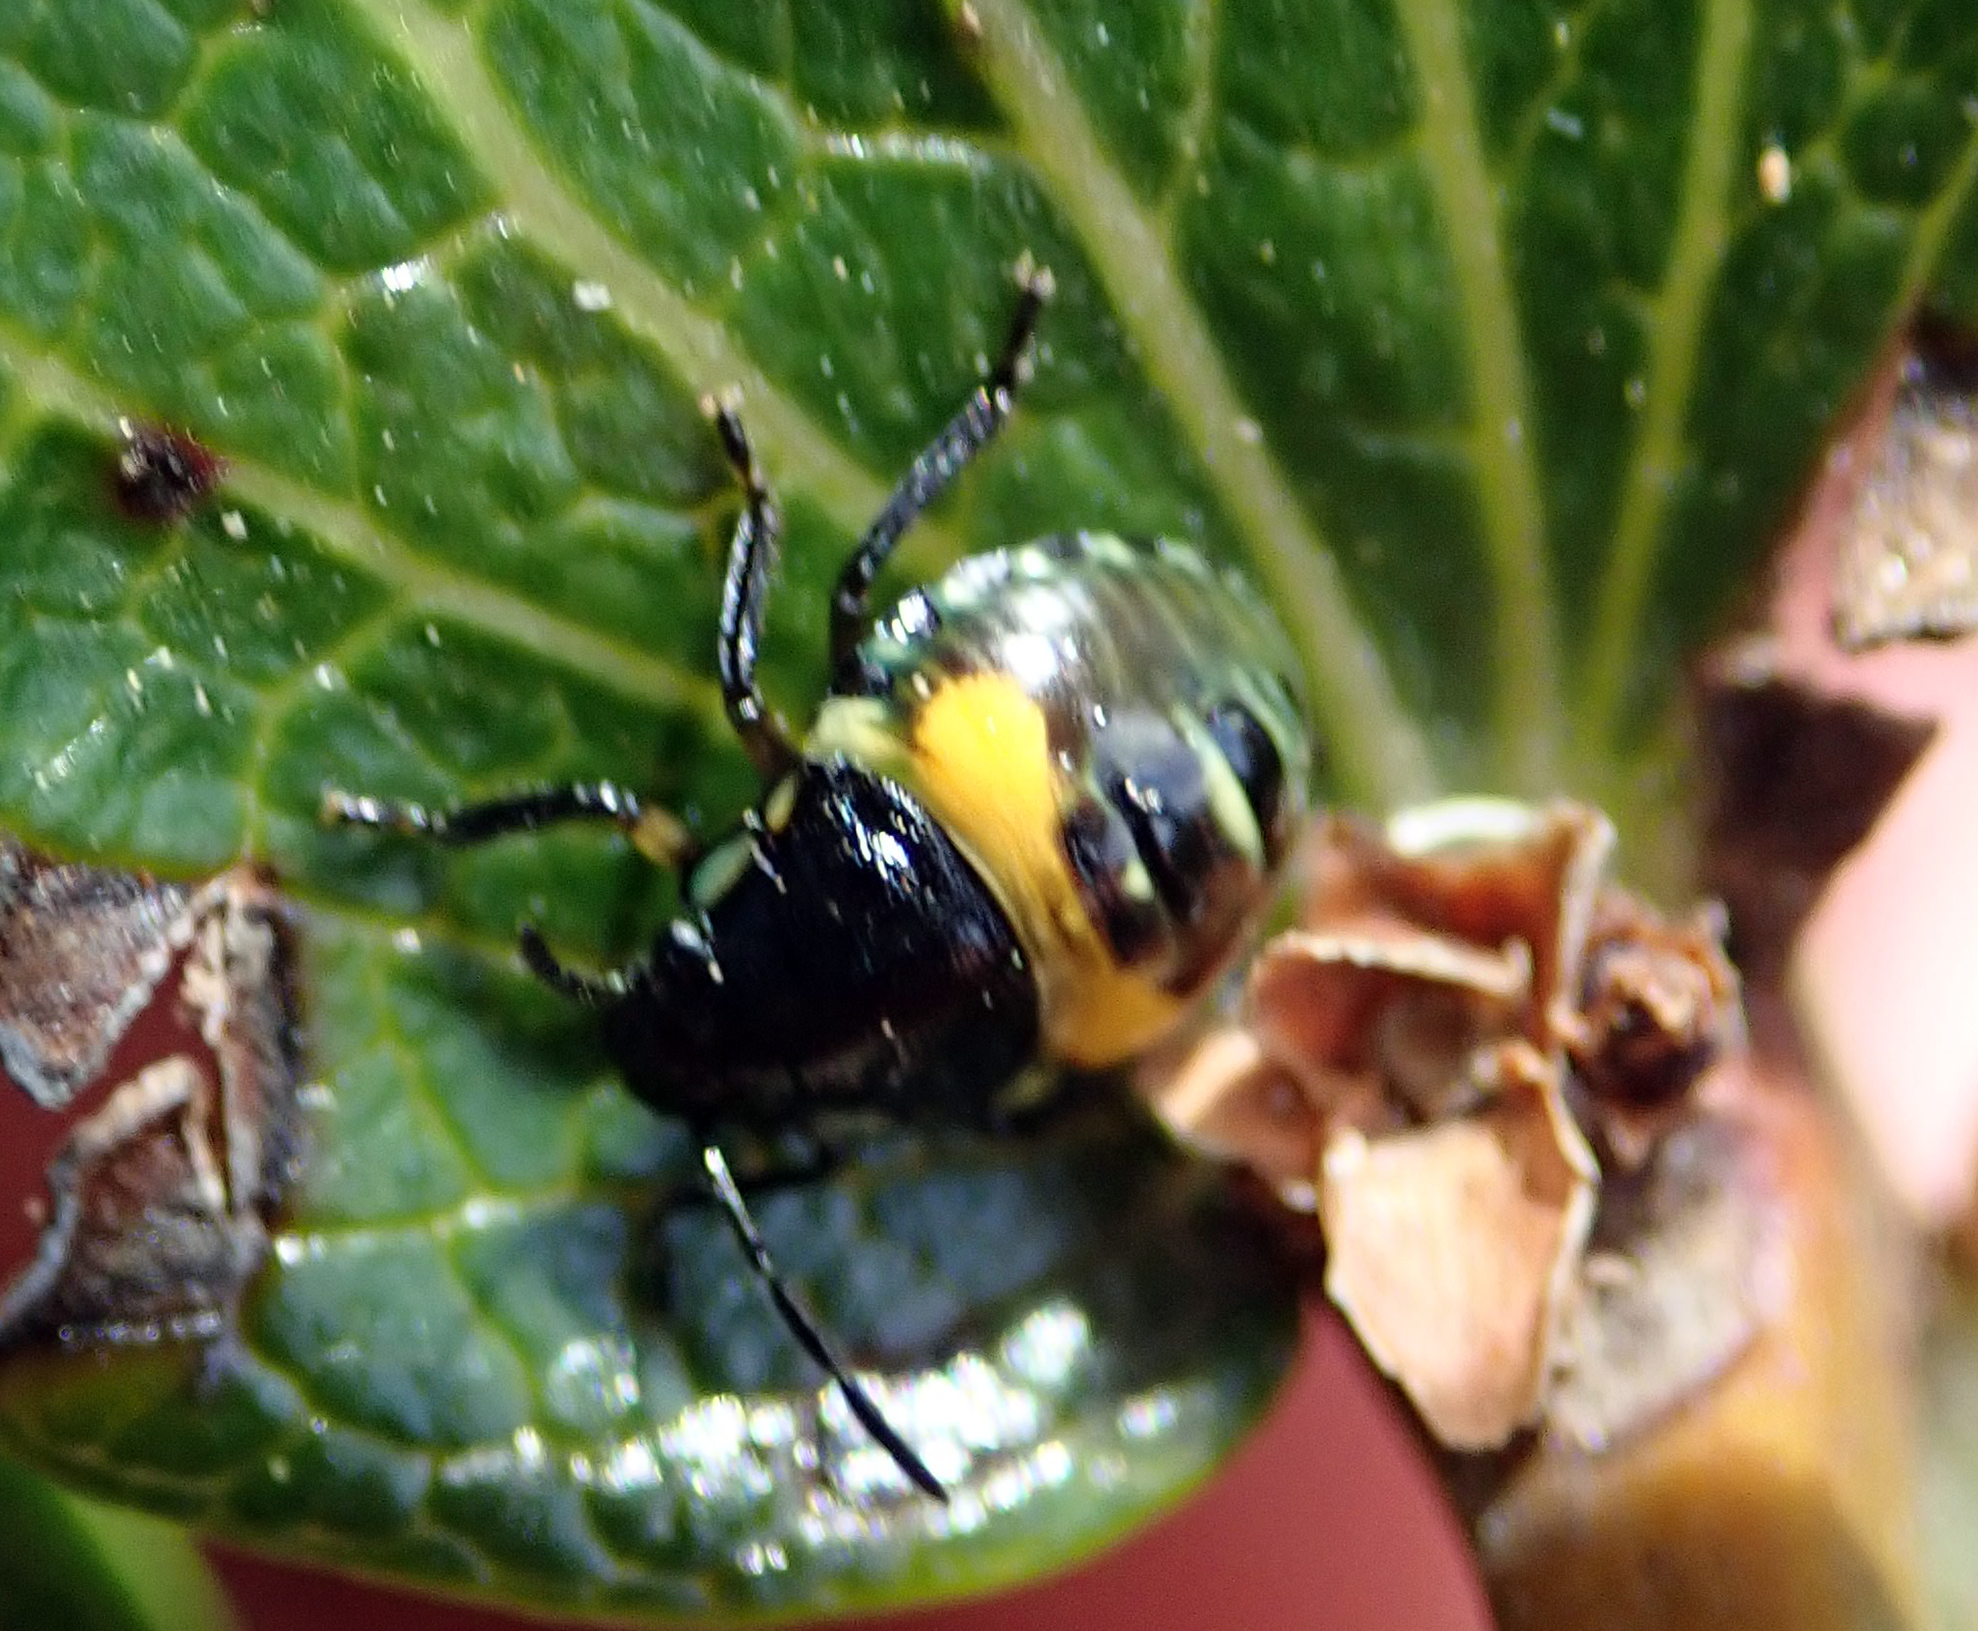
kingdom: Animalia
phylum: Arthropoda
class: Insecta
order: Hemiptera
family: Pentatomidae
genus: Glaucias
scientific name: Glaucias amyota
